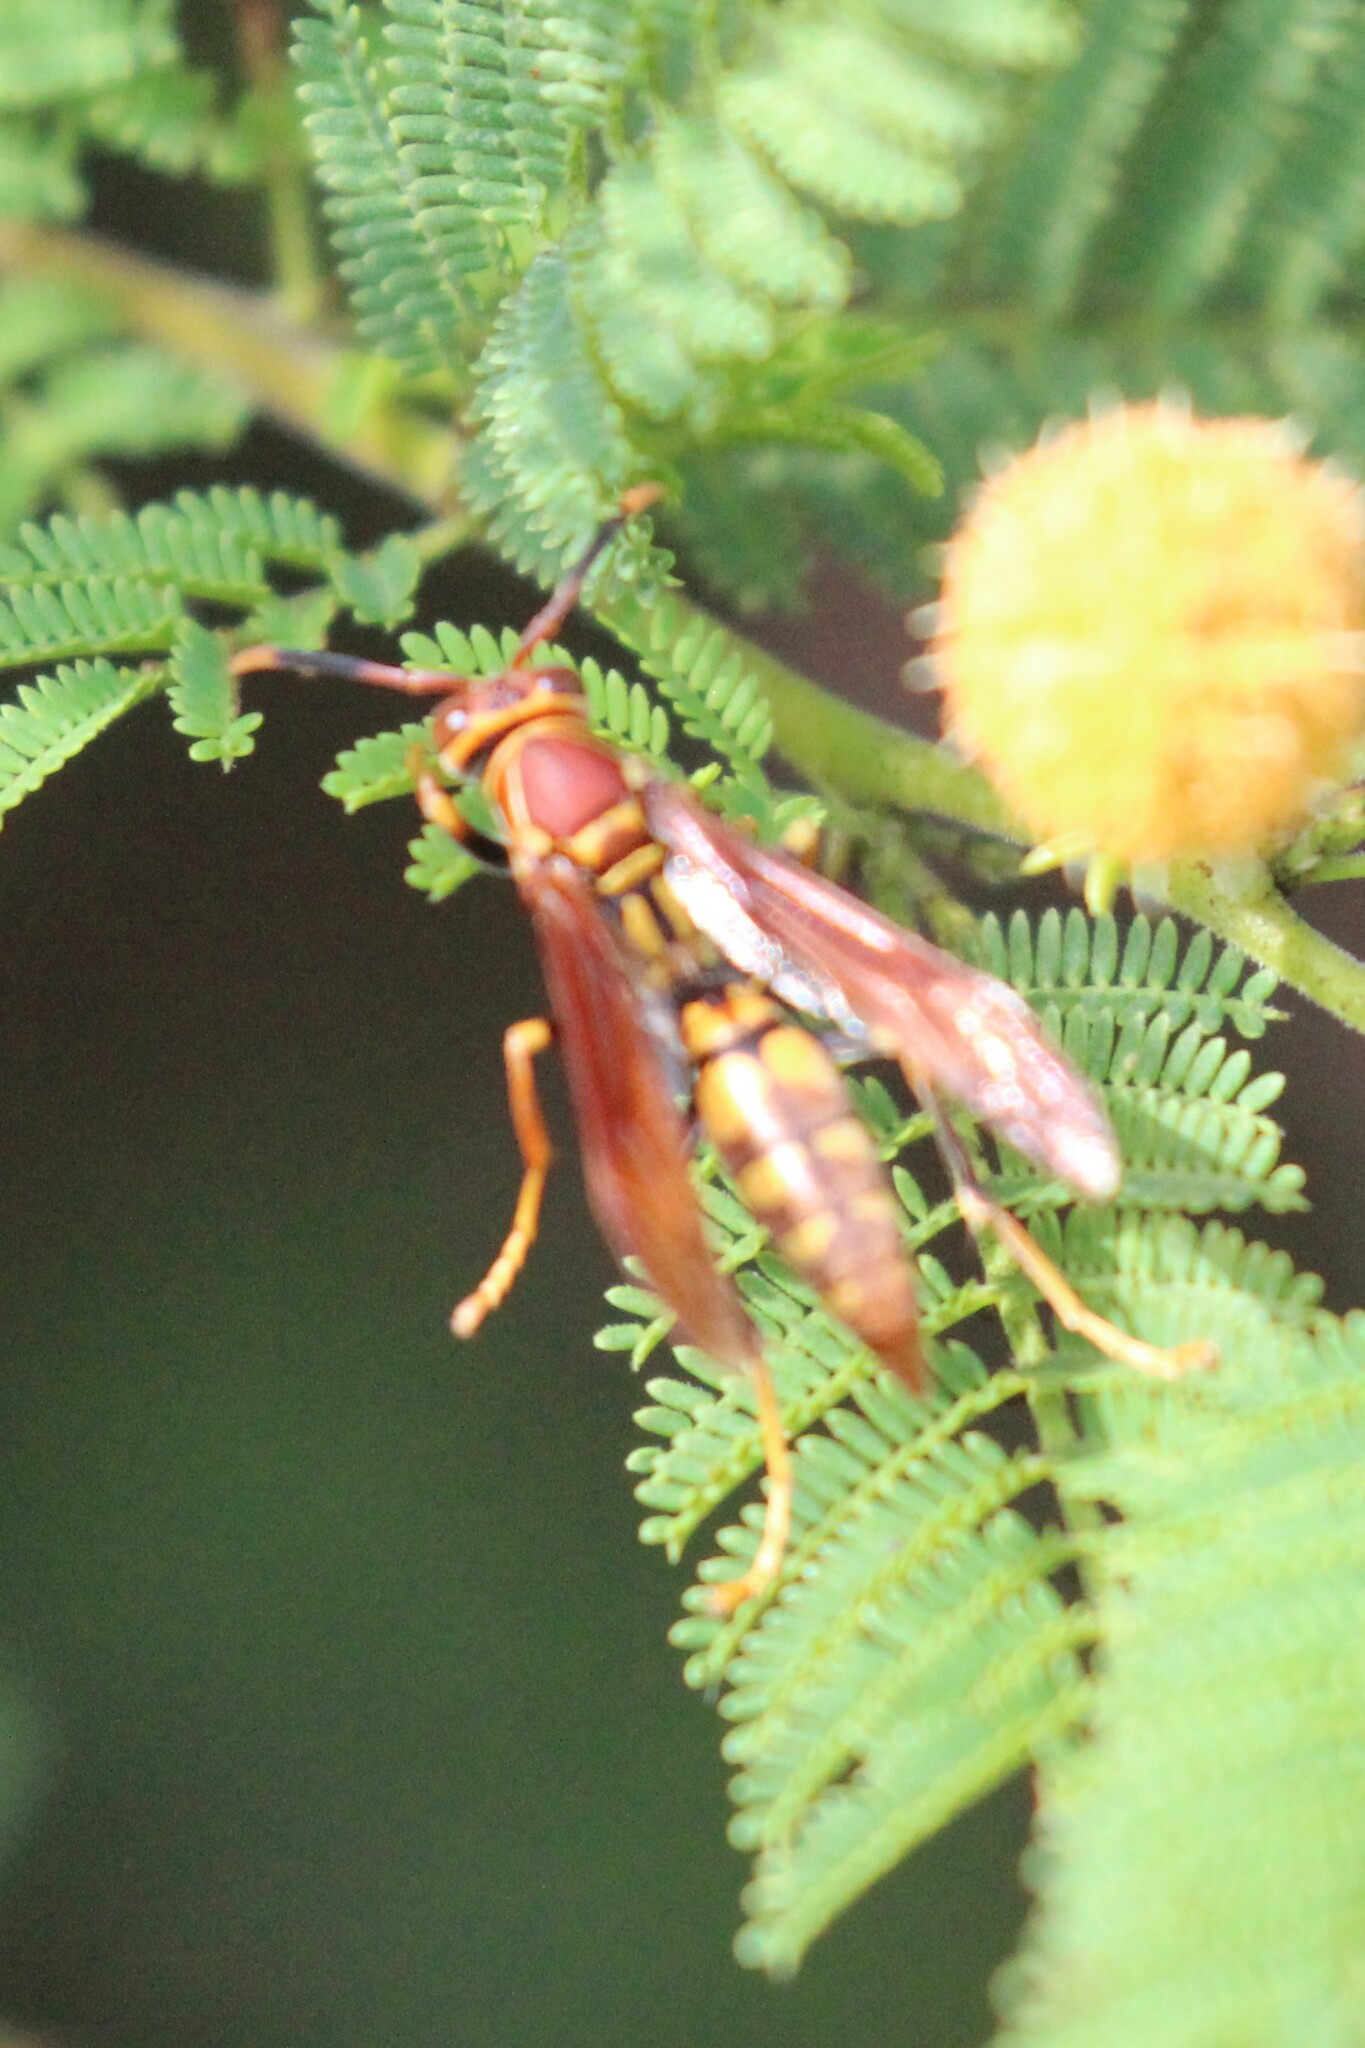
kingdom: Animalia
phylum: Arthropoda
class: Insecta
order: Hymenoptera
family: Eumenidae
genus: Polistes
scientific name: Polistes versicolor
